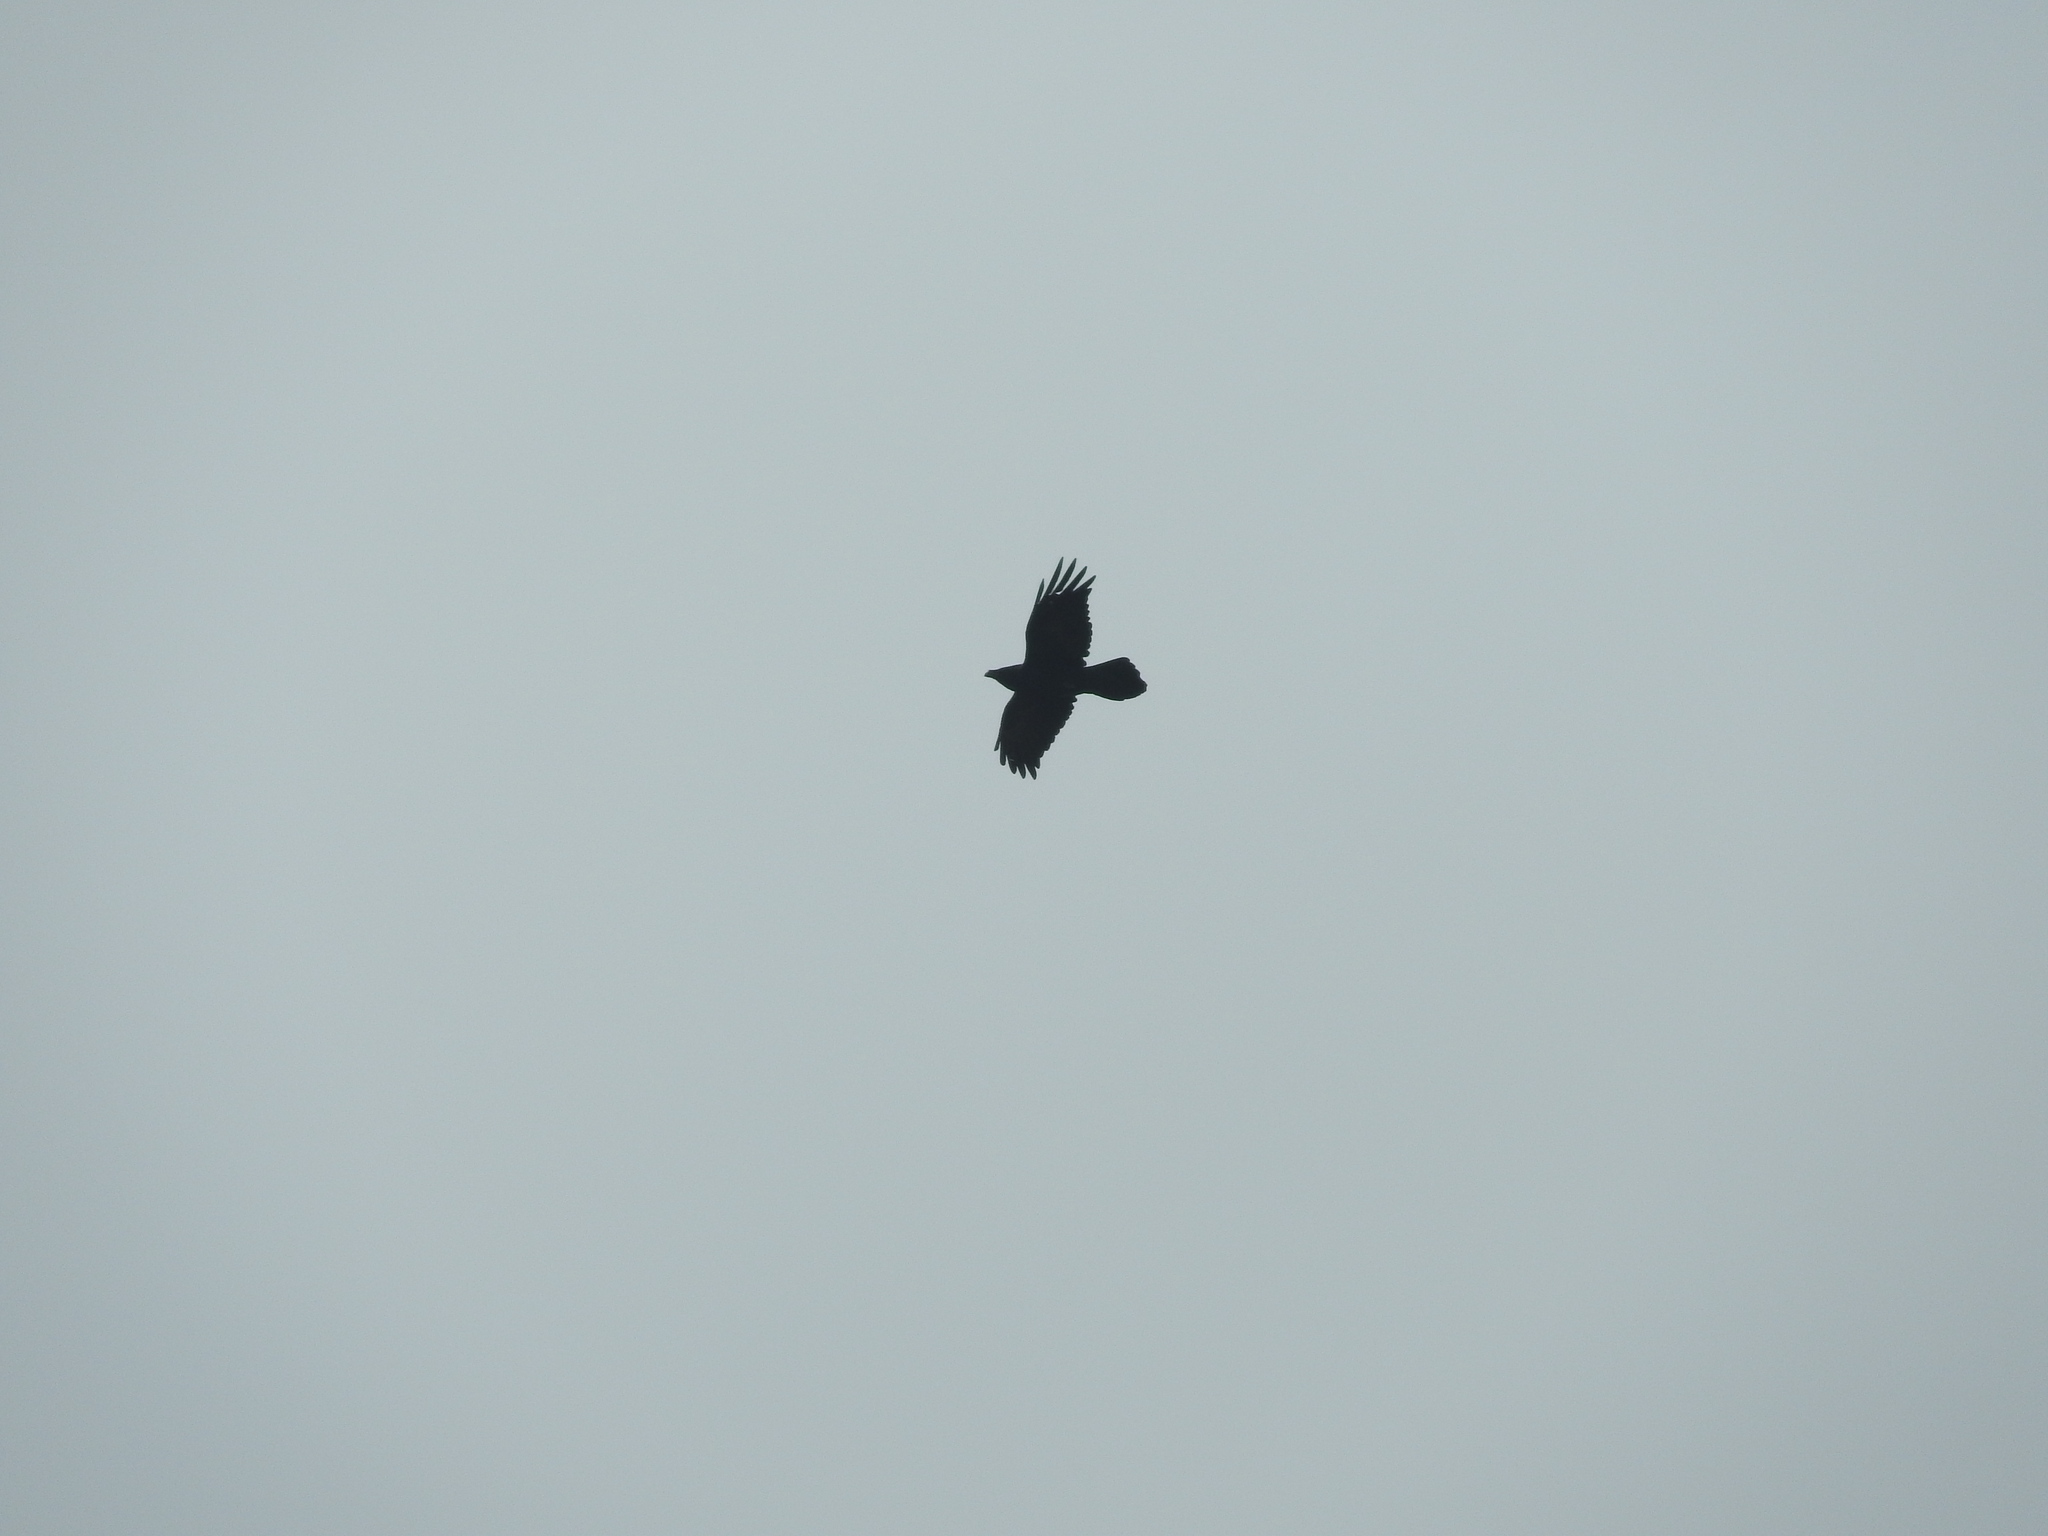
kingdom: Animalia
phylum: Chordata
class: Aves
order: Passeriformes
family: Corvidae
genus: Corvus
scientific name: Corvus corax
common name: Common raven
